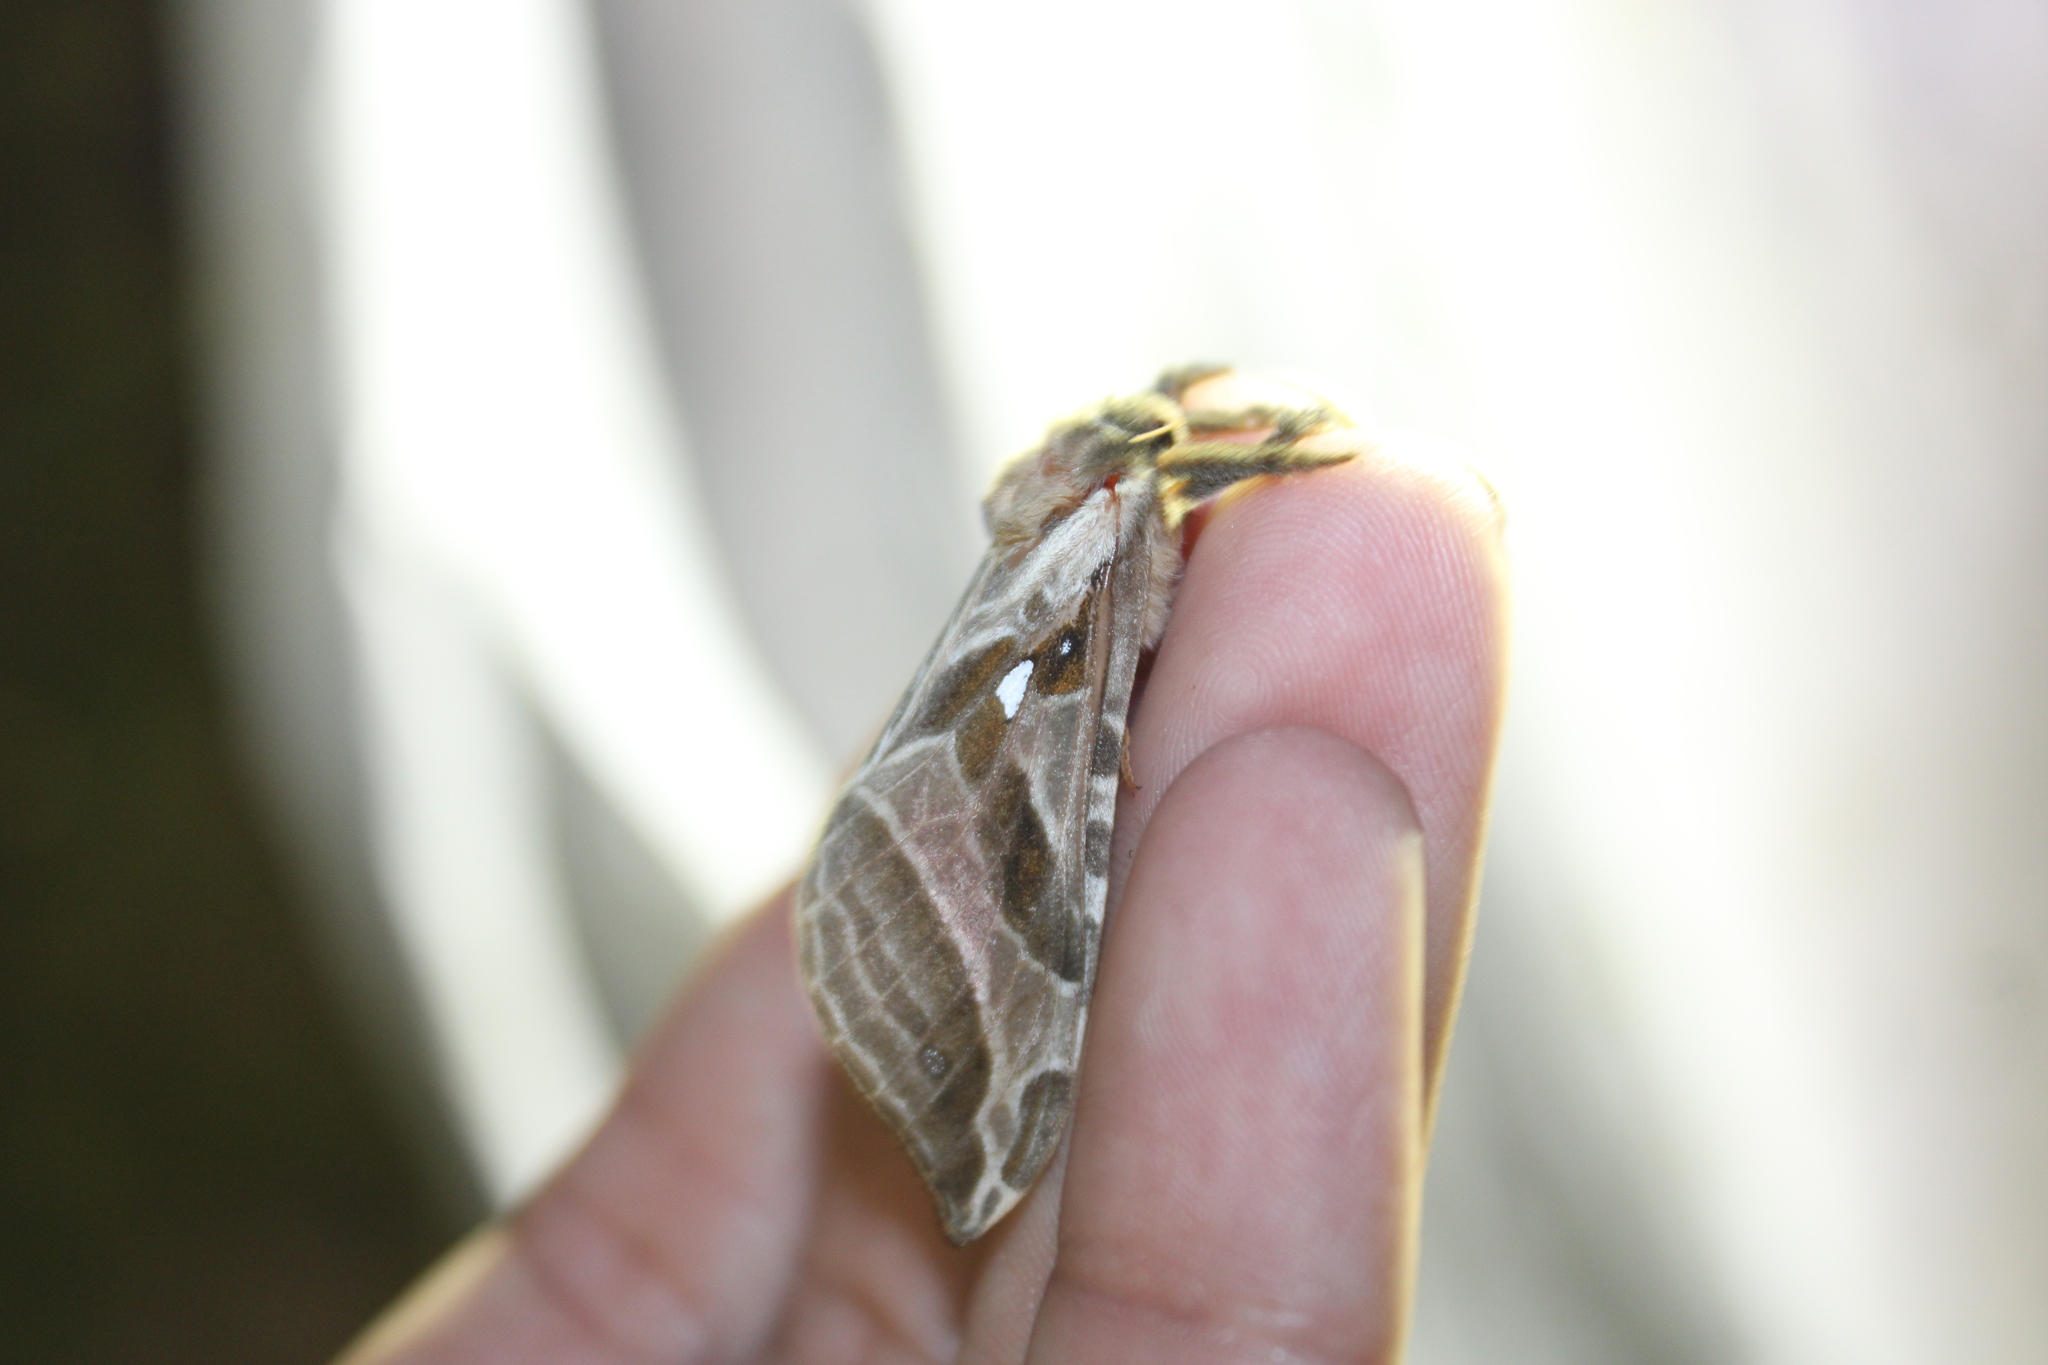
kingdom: Animalia
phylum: Arthropoda
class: Insecta
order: Lepidoptera
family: Hepialidae
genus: Sthenopis
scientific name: Sthenopis argenteomaculatus
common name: Silver-spotted ghost moth
